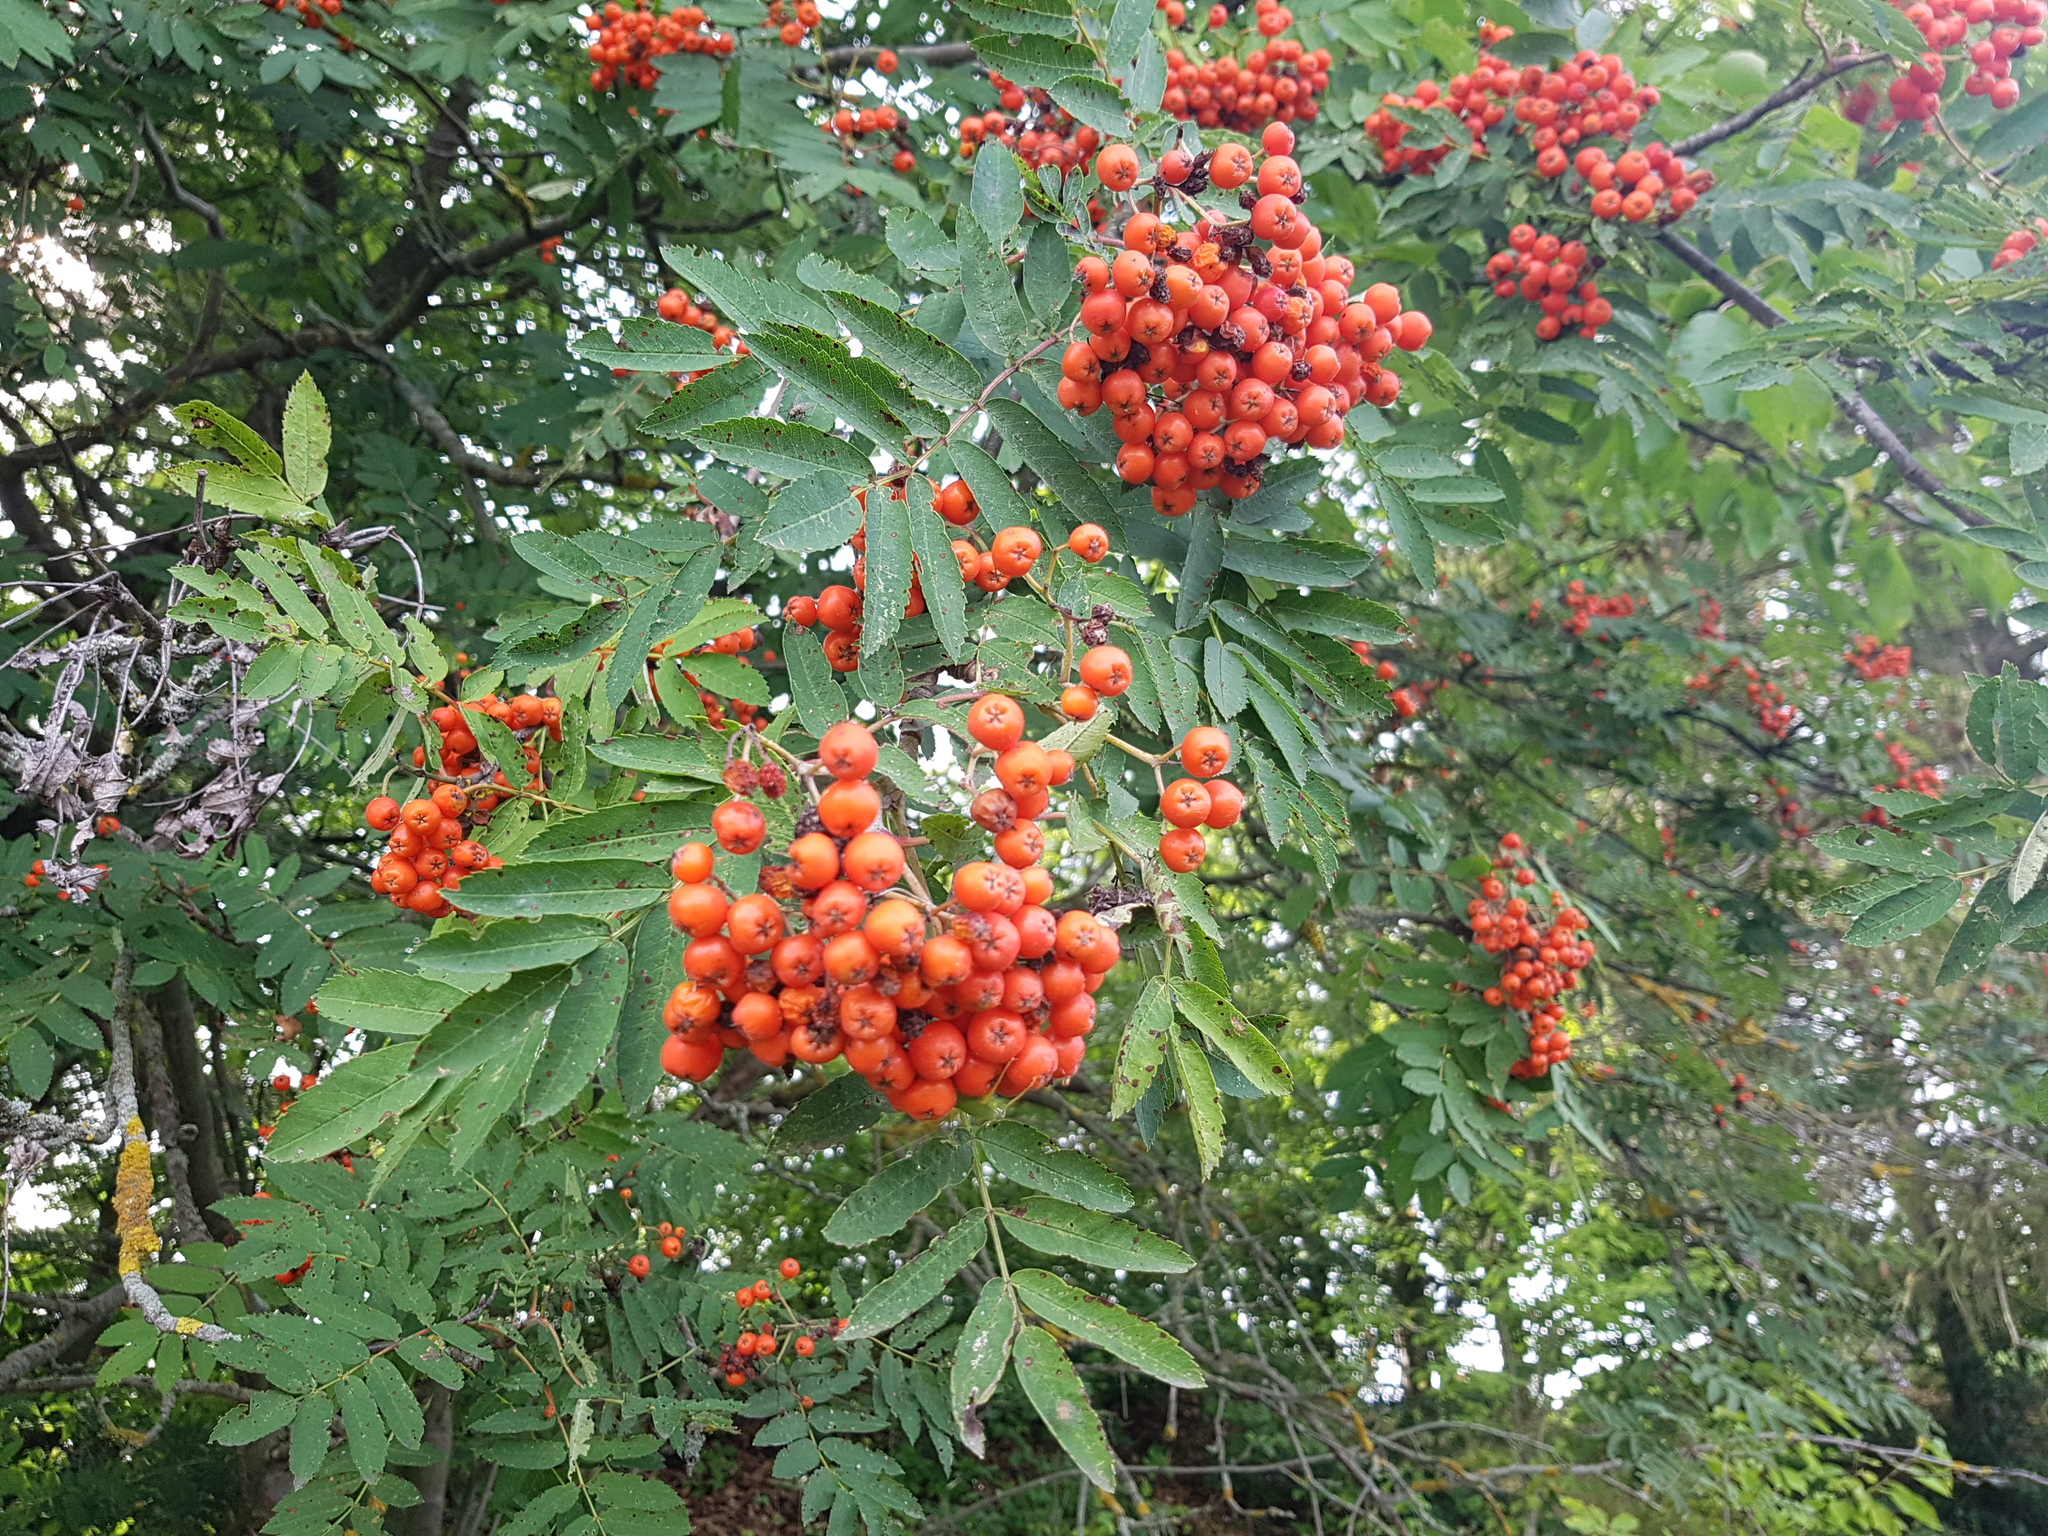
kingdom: Plantae
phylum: Tracheophyta
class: Magnoliopsida
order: Rosales
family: Rosaceae
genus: Sorbus
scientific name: Sorbus aucuparia
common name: Rowan
